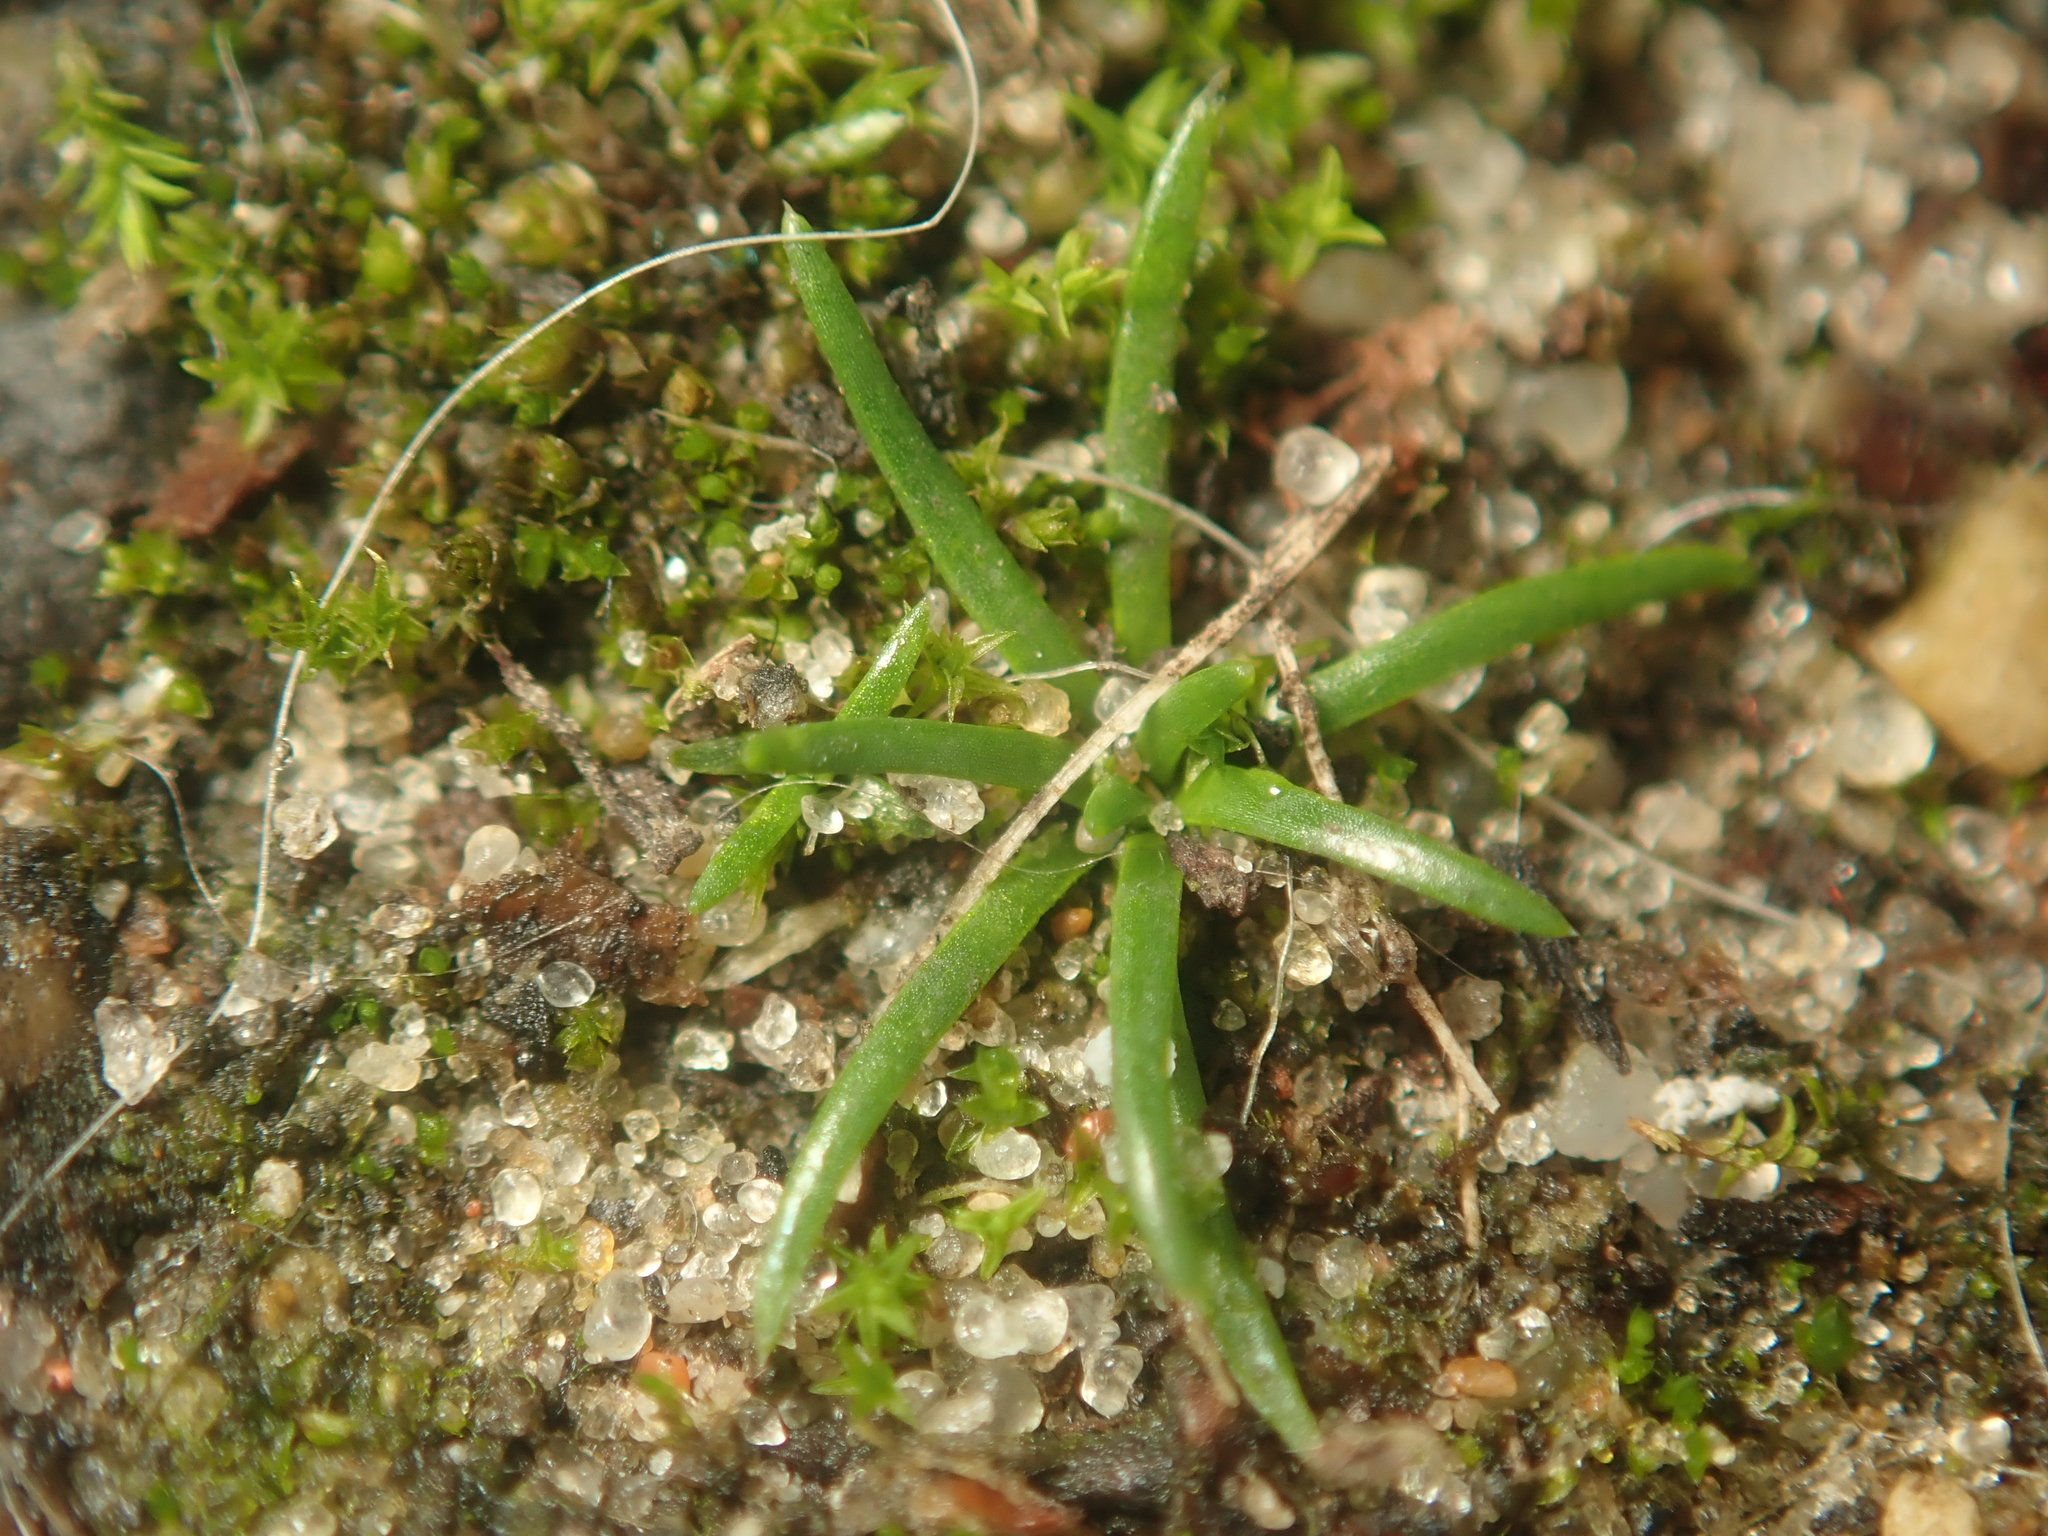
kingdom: Plantae
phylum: Tracheophyta
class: Magnoliopsida
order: Caryophyllales
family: Caryophyllaceae
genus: Sagina
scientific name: Sagina procumbens
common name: Procumbent pearlwort
